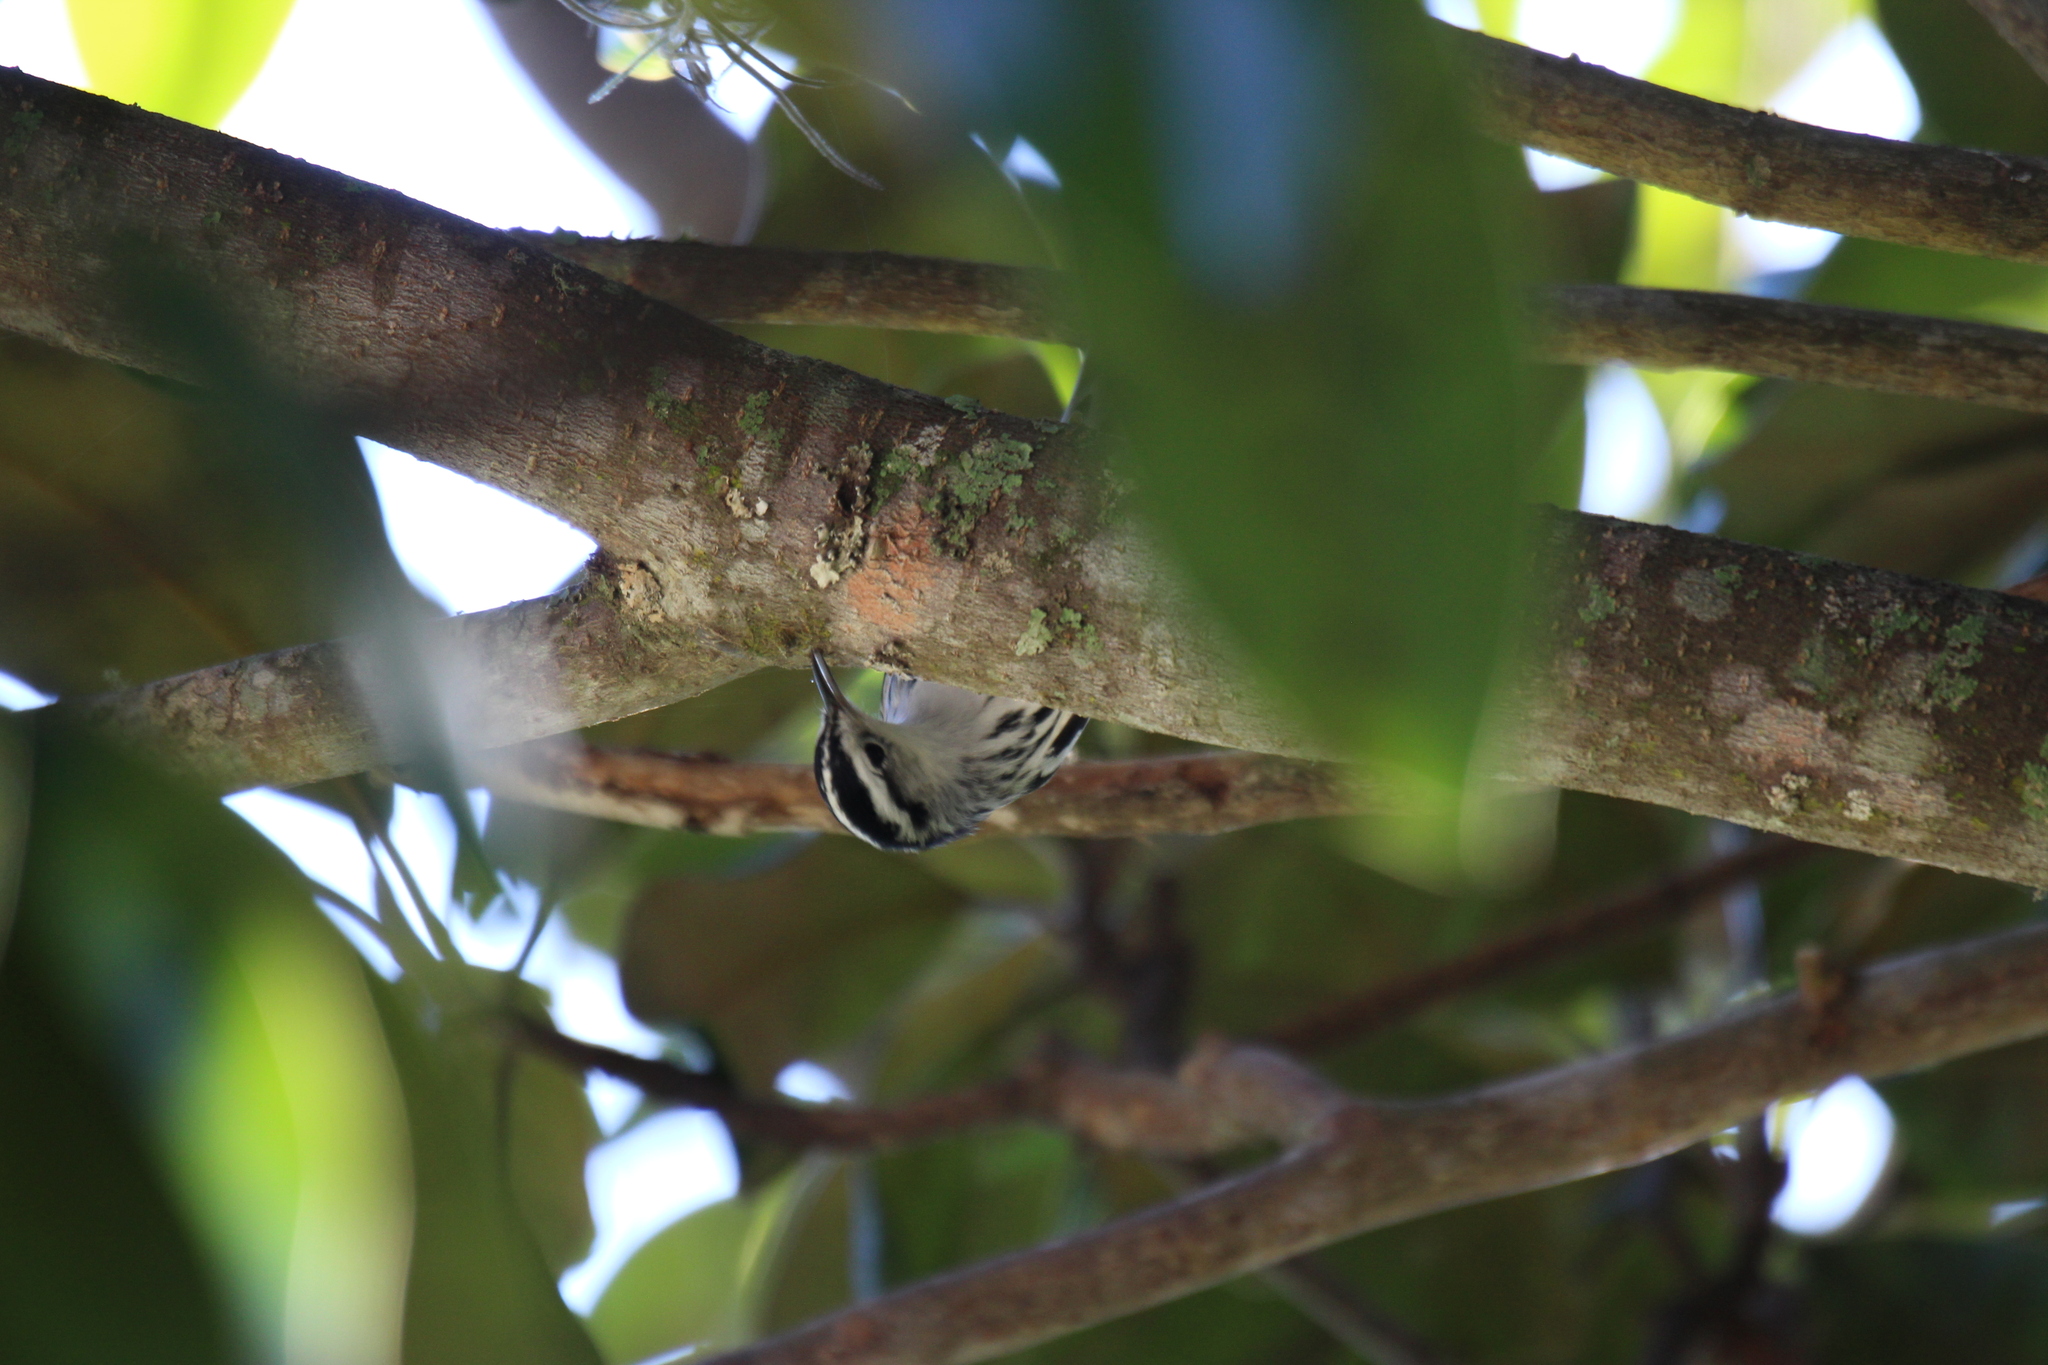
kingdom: Animalia
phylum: Chordata
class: Aves
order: Passeriformes
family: Parulidae
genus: Mniotilta
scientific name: Mniotilta varia
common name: Black-and-white warbler
